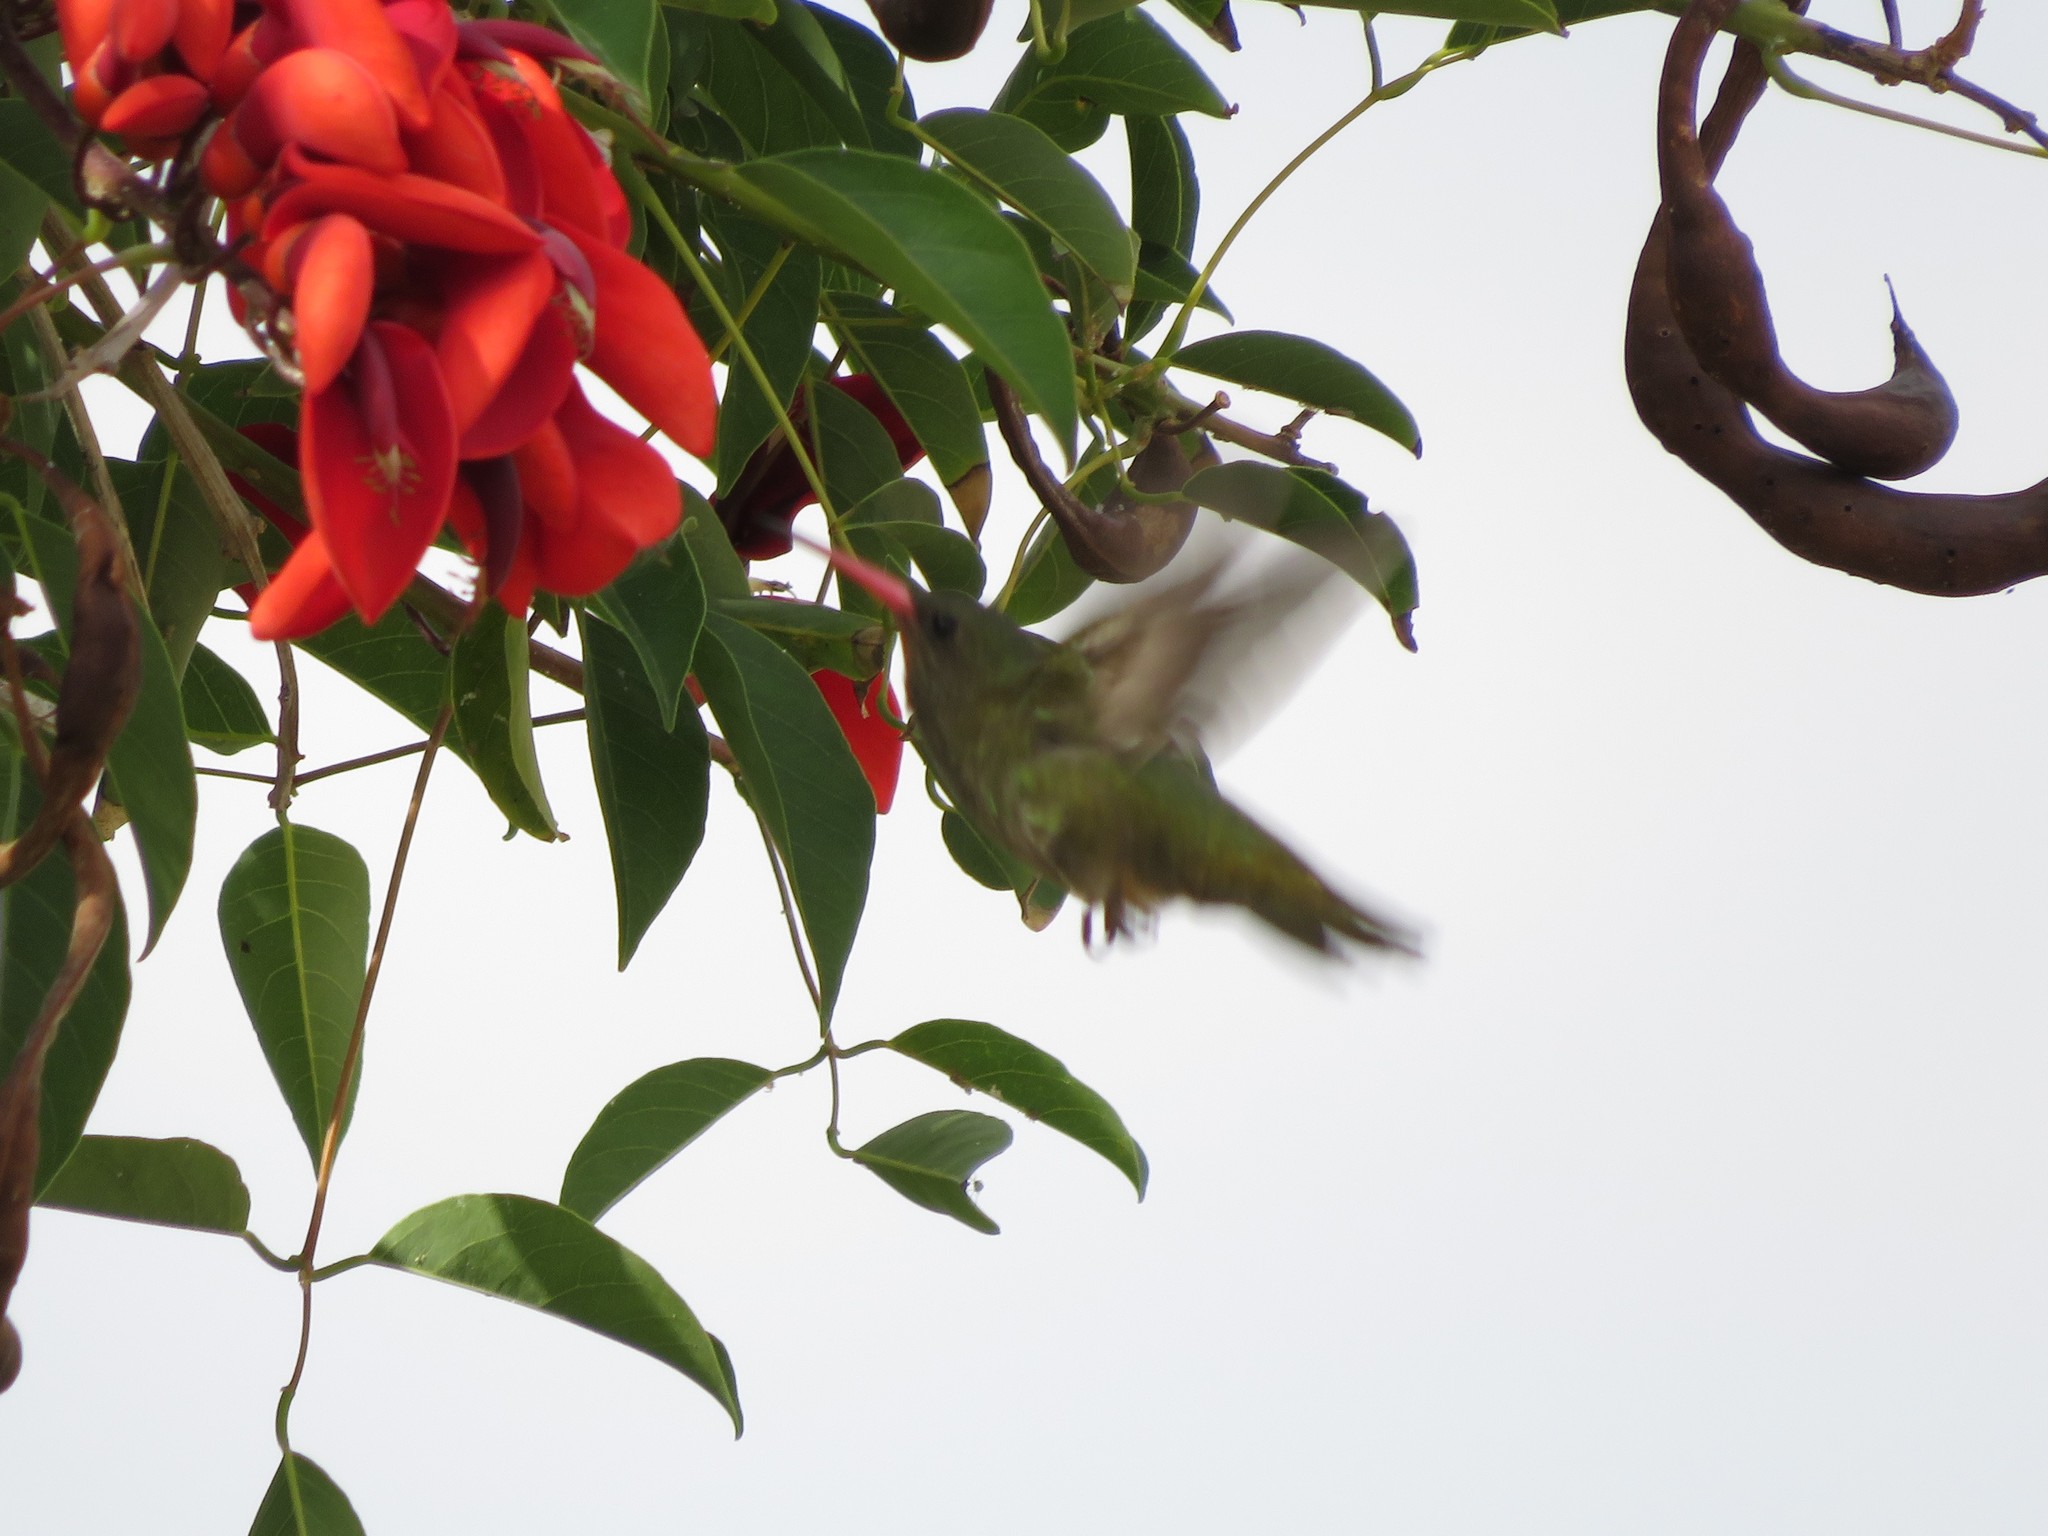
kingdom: Animalia
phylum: Chordata
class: Aves
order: Apodiformes
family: Trochilidae
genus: Chlorostilbon
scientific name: Chlorostilbon lucidus
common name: Glittering-bellied emerald
